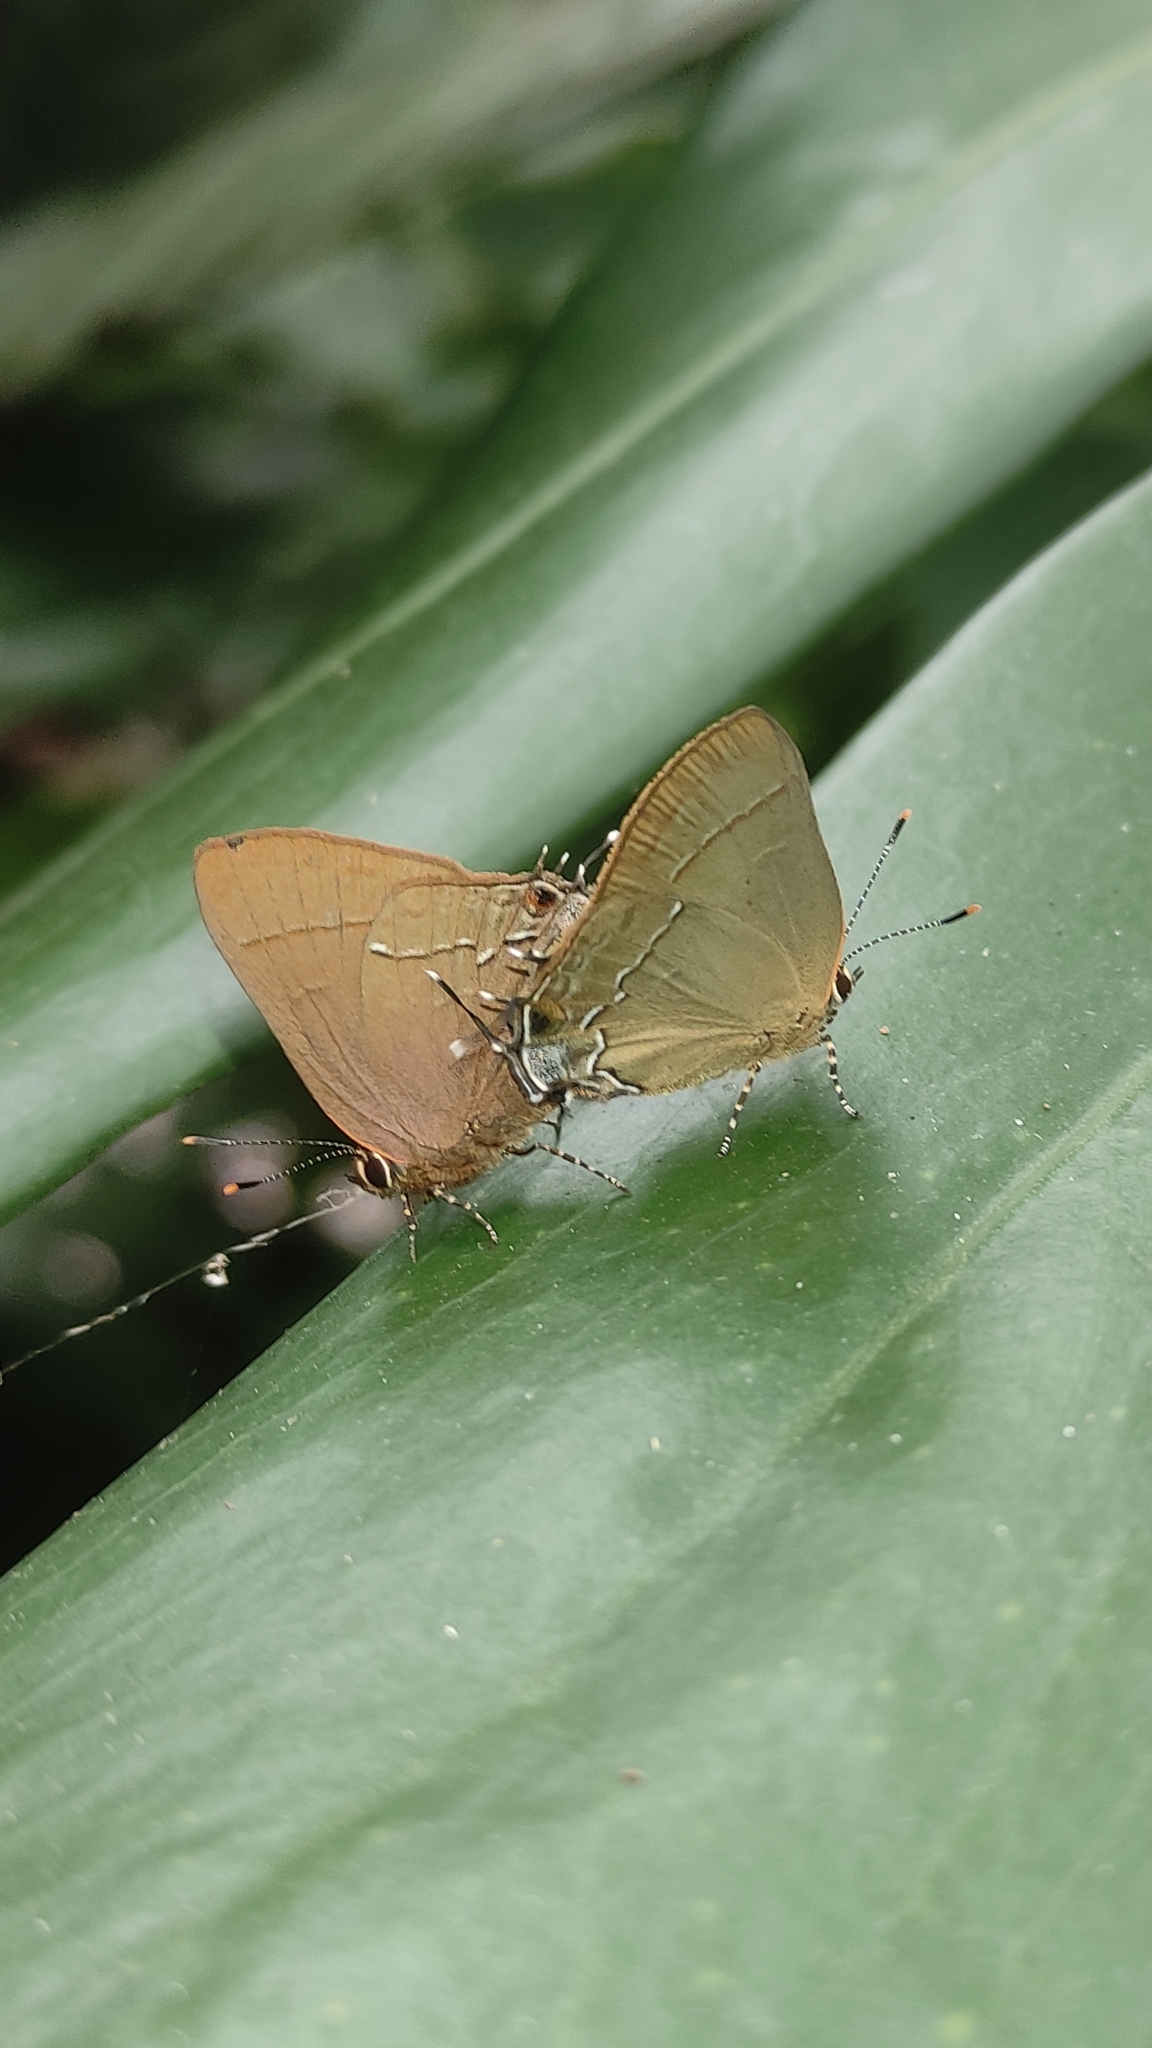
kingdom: Animalia
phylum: Arthropoda
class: Insecta
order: Lepidoptera
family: Lycaenidae
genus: Ziegleria
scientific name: Ziegleria hesperitis
